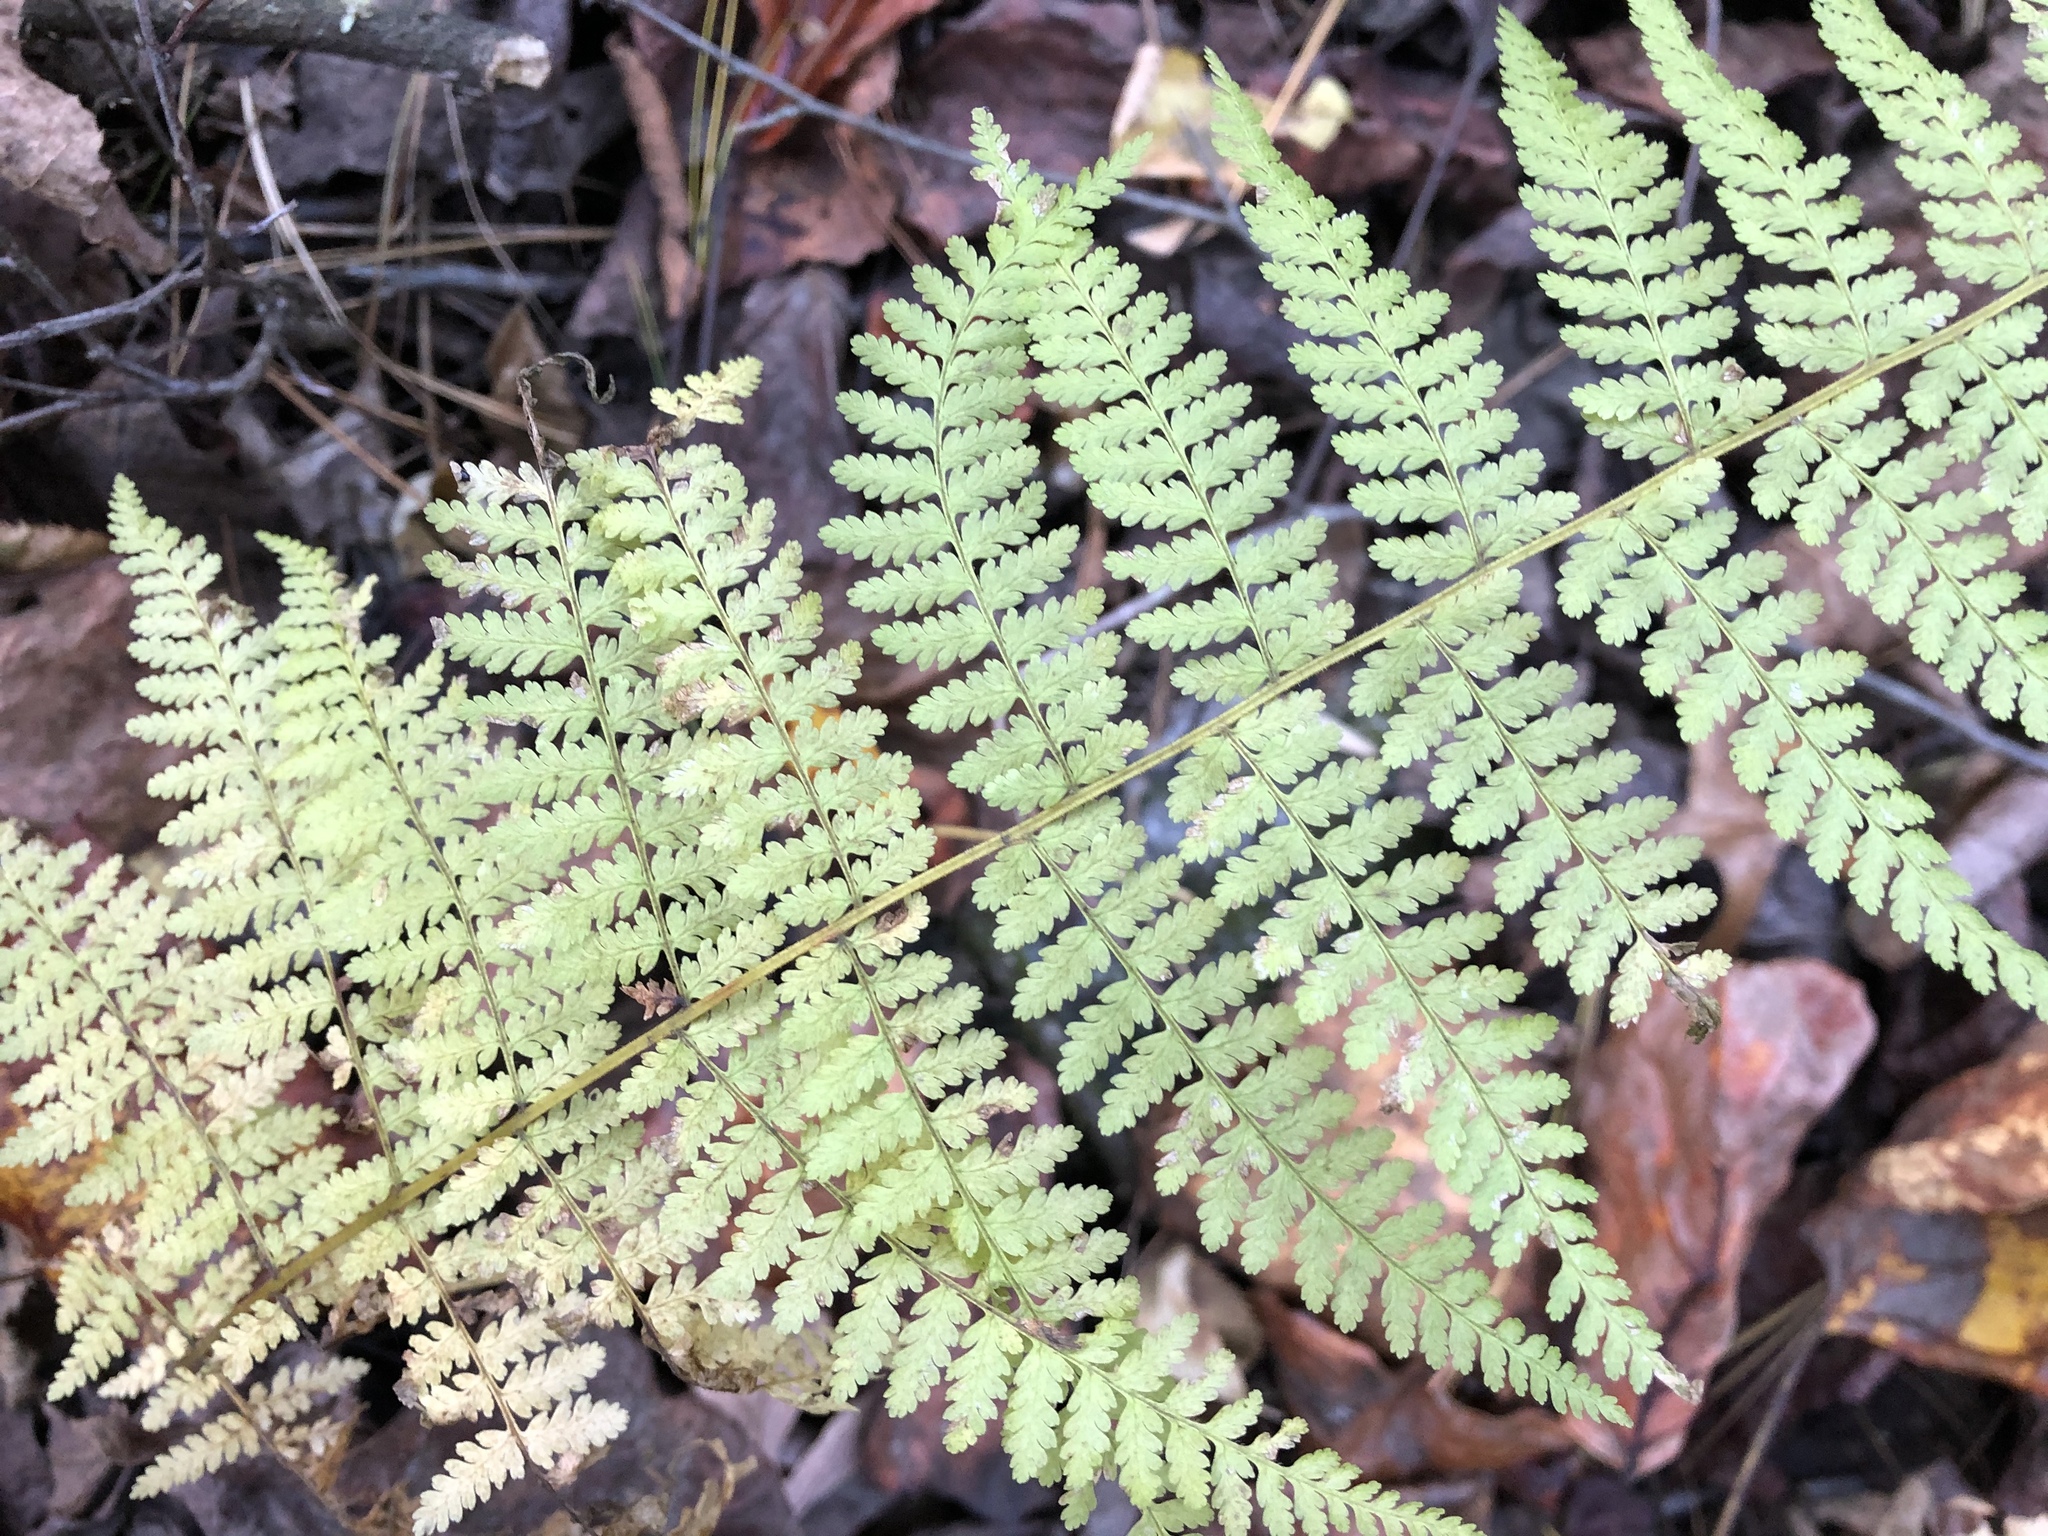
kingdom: Plantae
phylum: Tracheophyta
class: Polypodiopsida
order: Polypodiales
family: Dennstaedtiaceae
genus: Sitobolium
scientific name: Sitobolium punctilobum
